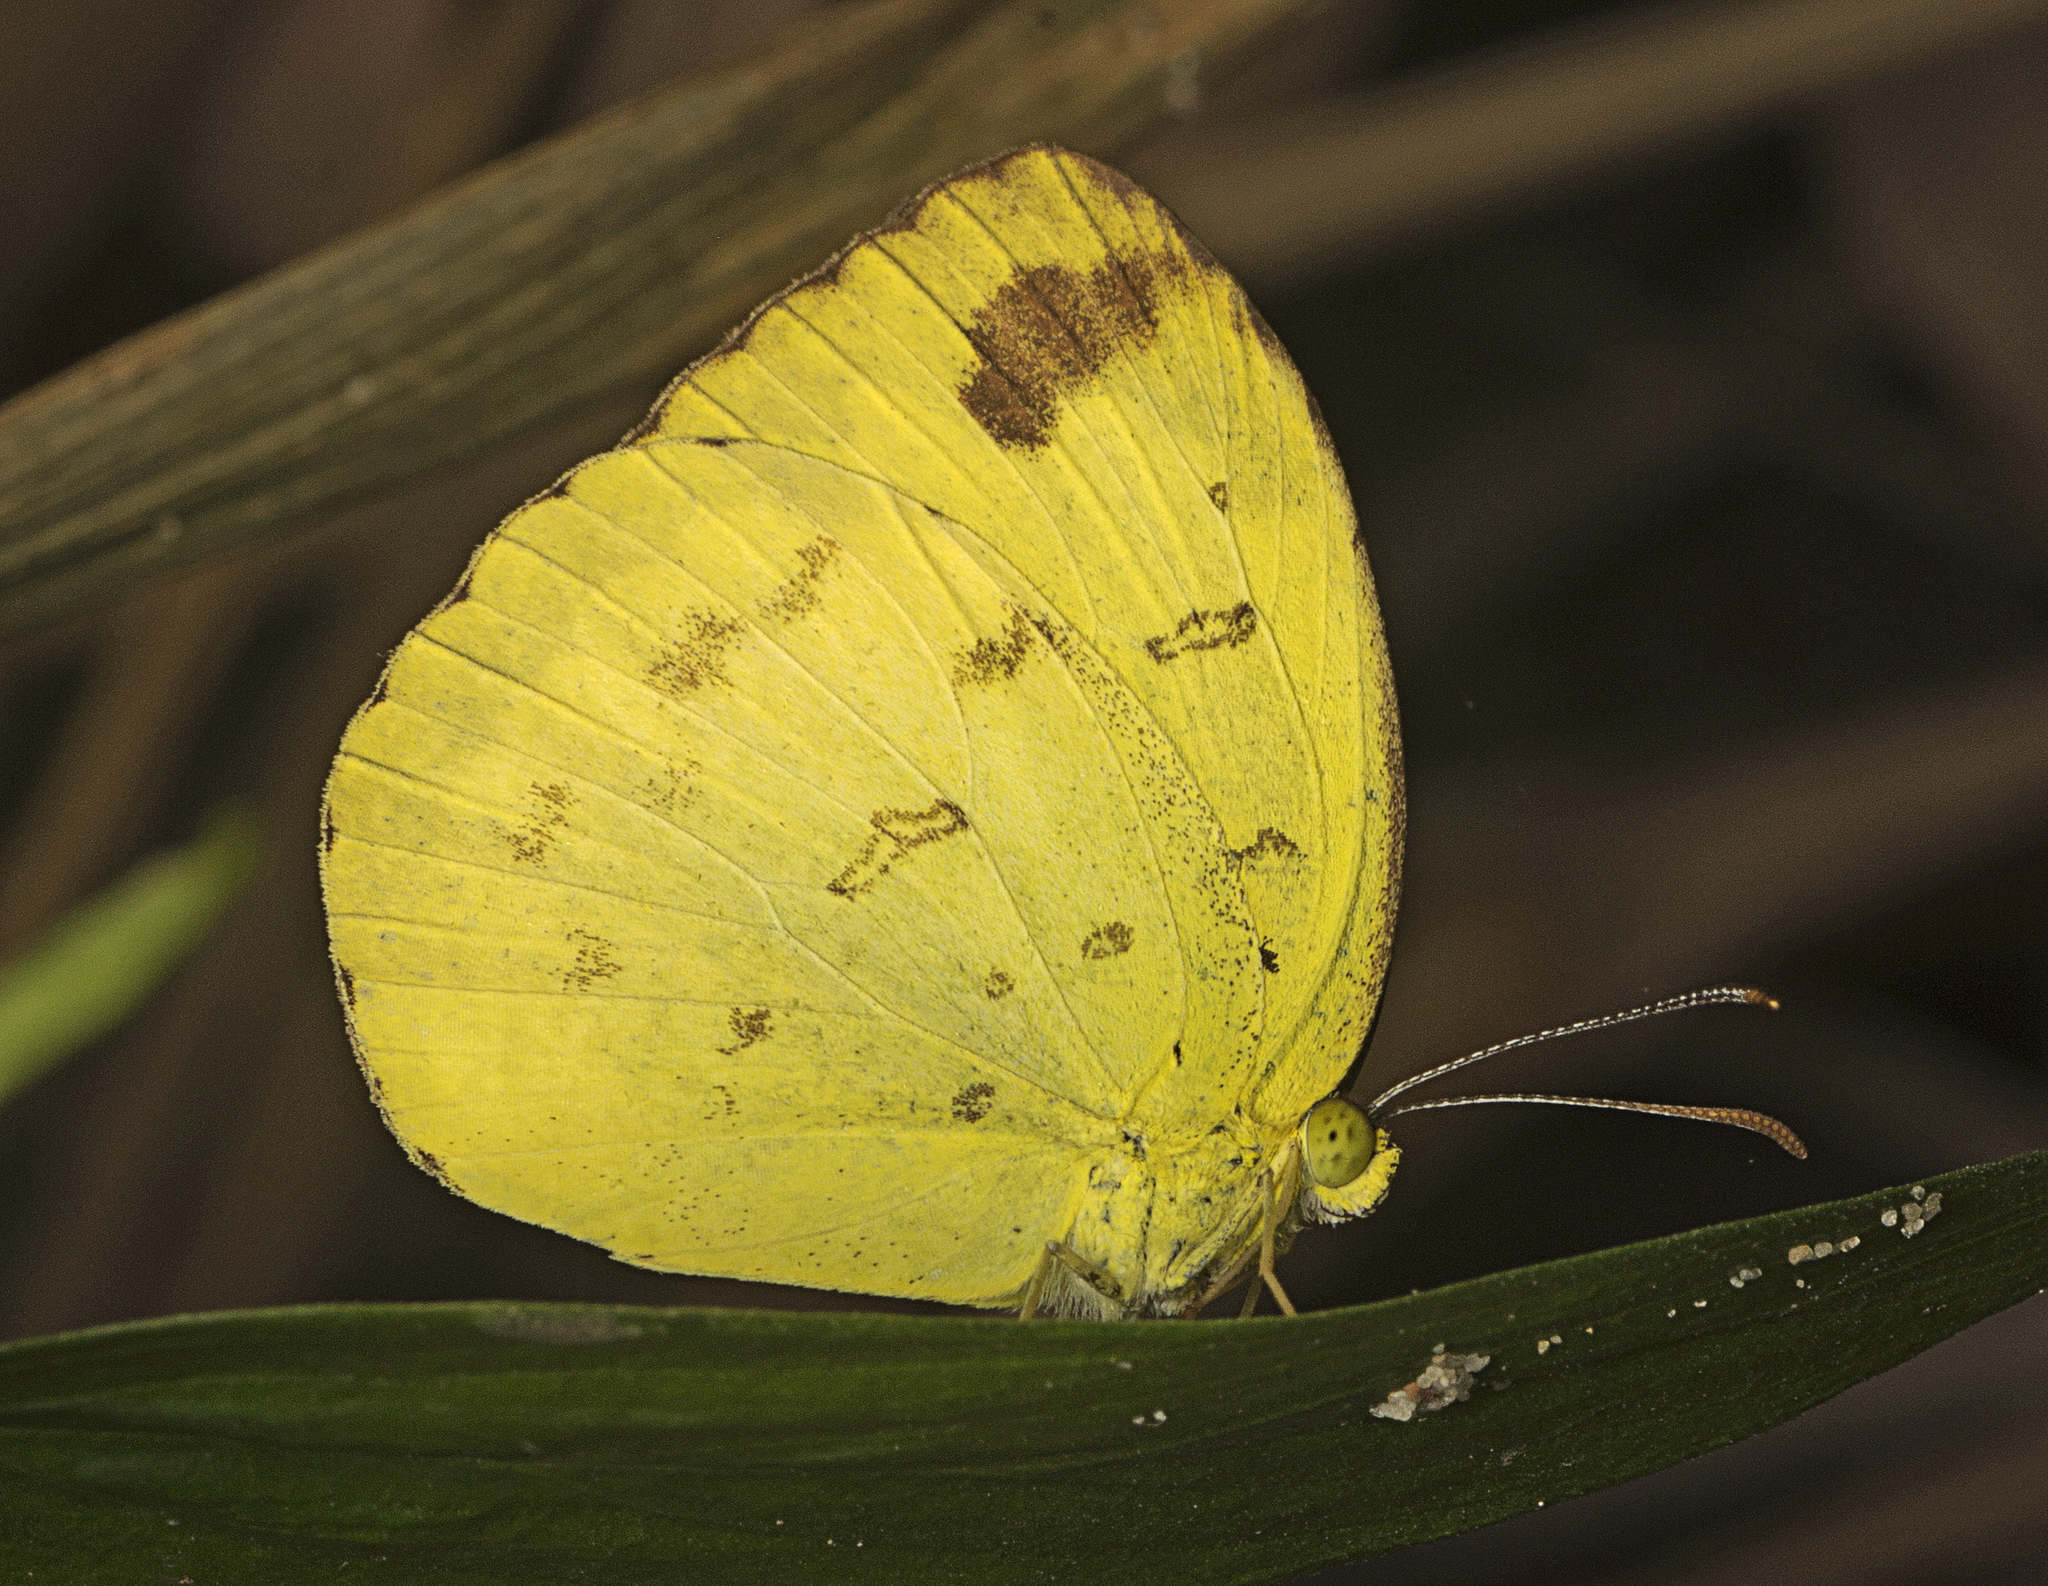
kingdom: Animalia
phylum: Arthropoda
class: Insecta
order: Lepidoptera
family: Pieridae
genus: Eurema
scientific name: Eurema hecabe
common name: Pale grass yellow
